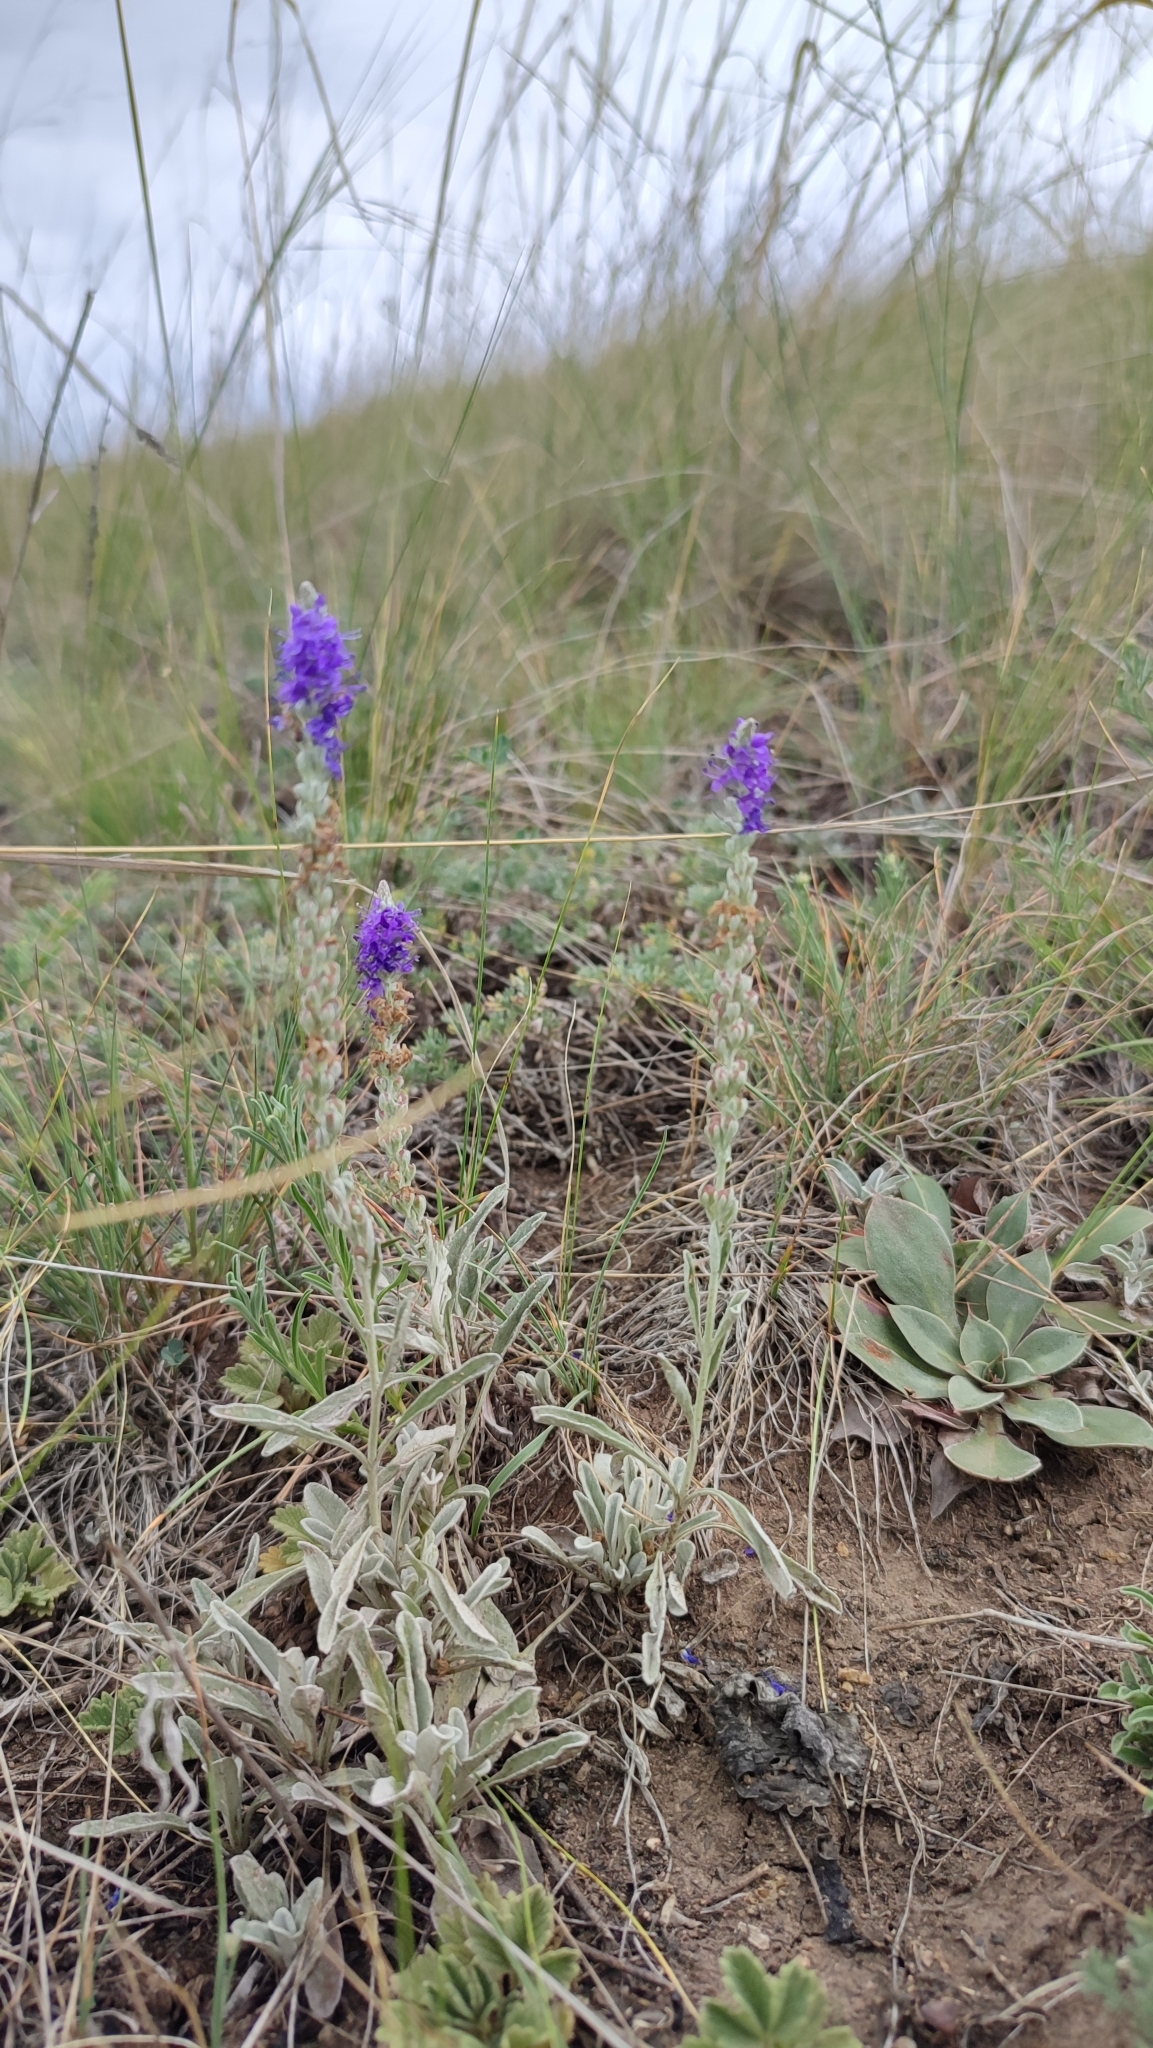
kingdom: Plantae
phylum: Tracheophyta
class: Magnoliopsida
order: Lamiales
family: Plantaginaceae
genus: Veronica
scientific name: Veronica incana
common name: Silver speedwell
